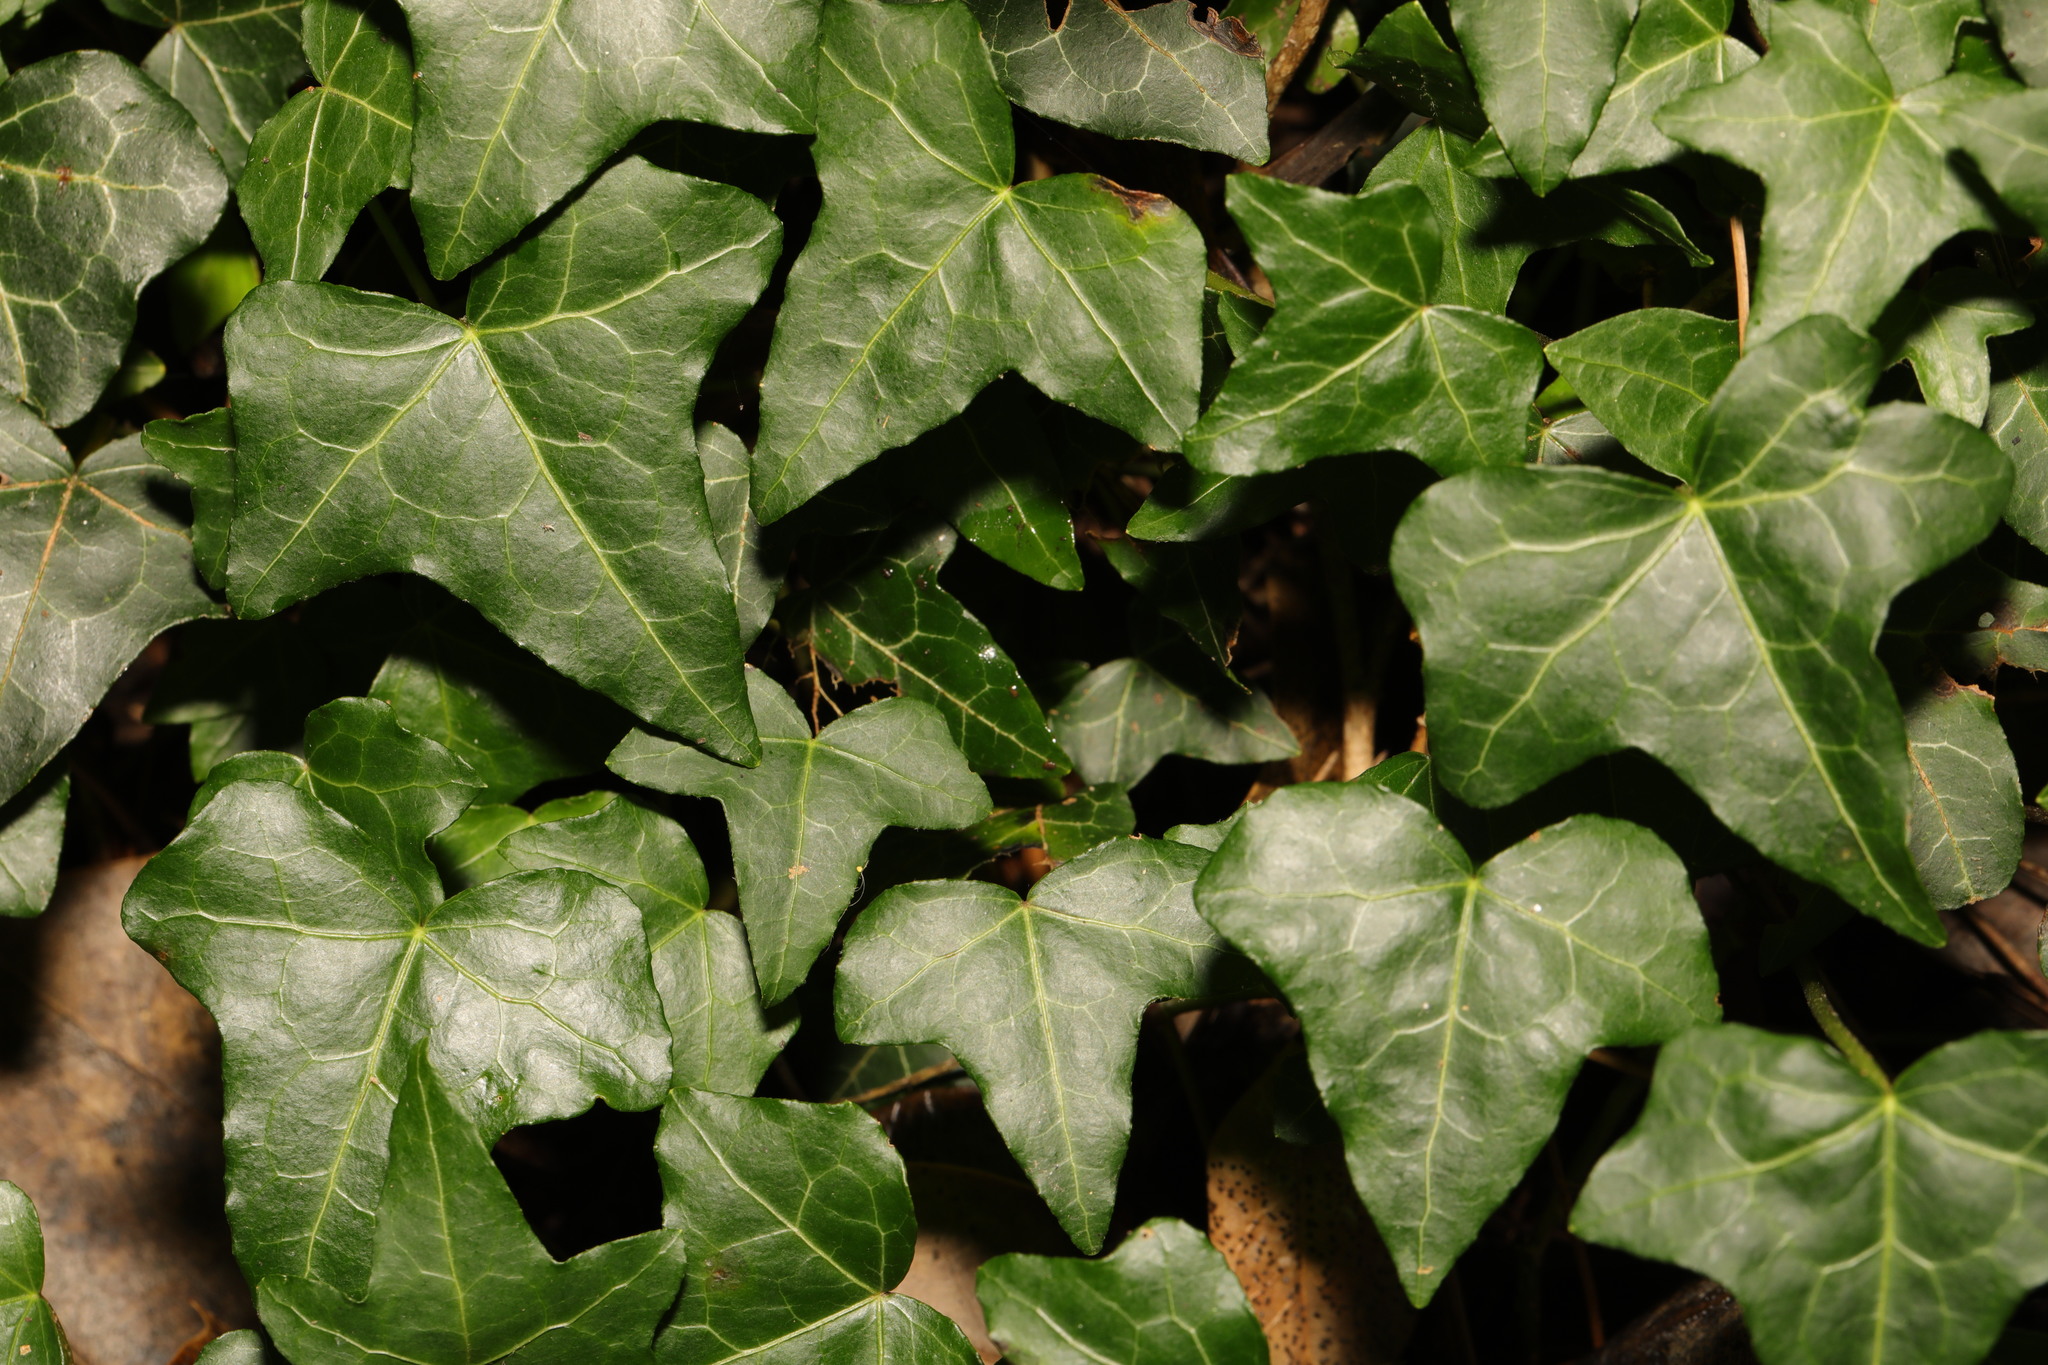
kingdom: Plantae
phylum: Tracheophyta
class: Magnoliopsida
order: Apiales
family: Araliaceae
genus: Hedera
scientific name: Hedera helix
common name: Ivy
